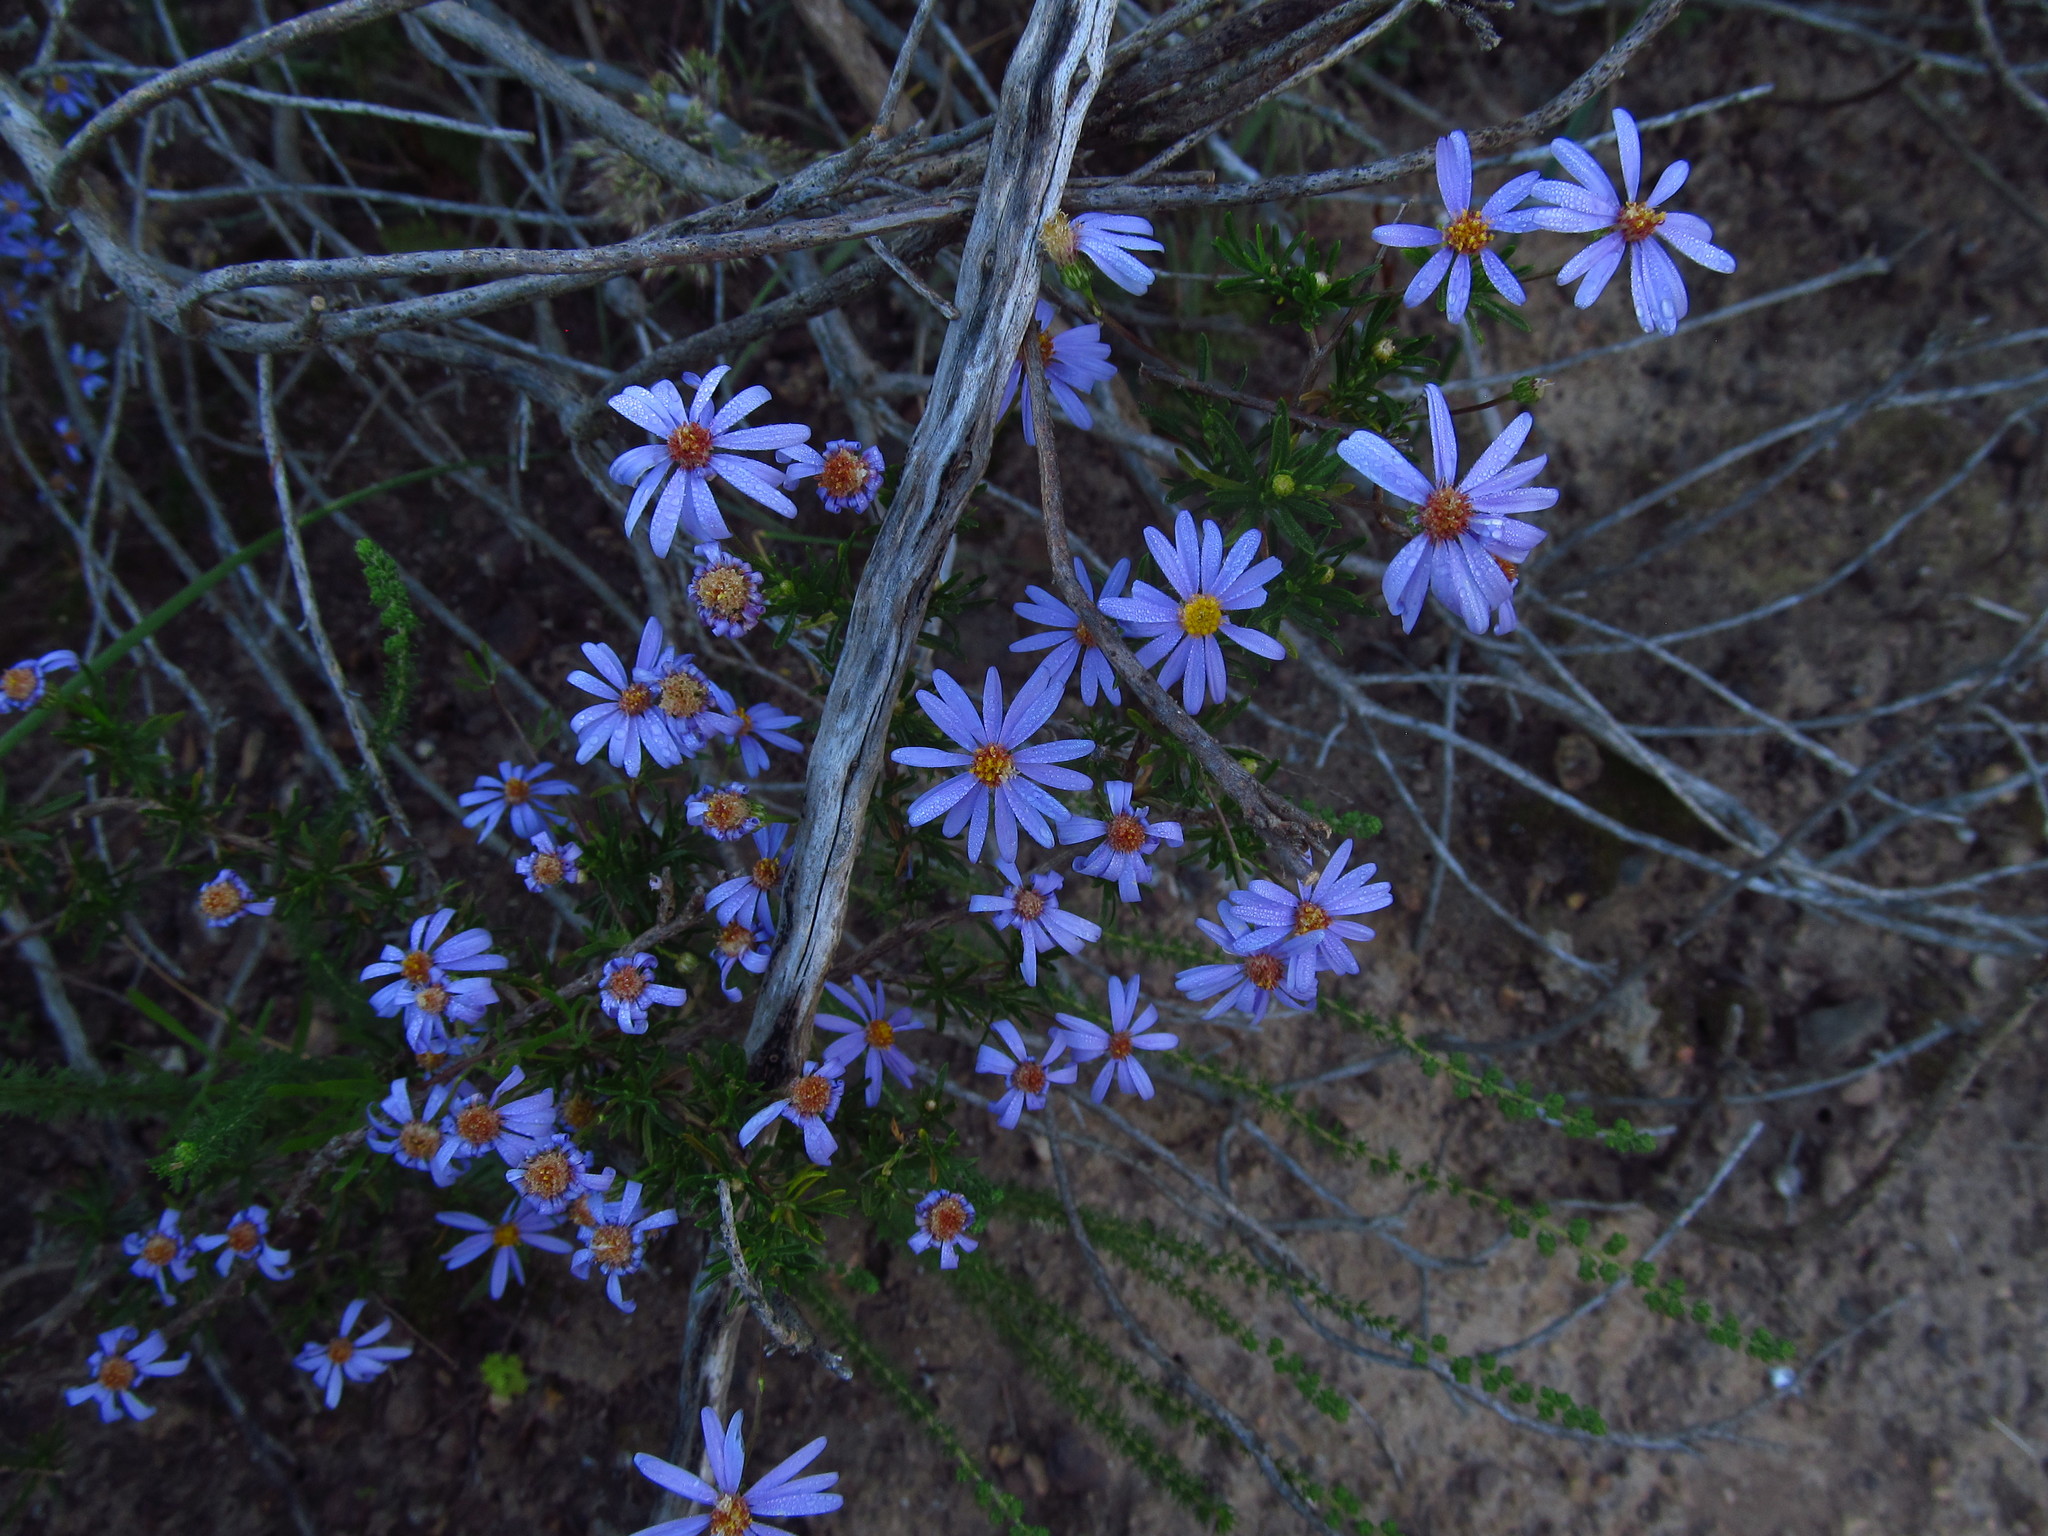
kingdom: Plantae
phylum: Tracheophyta
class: Magnoliopsida
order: Asterales
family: Asteraceae
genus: Felicia
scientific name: Felicia fruticosa
